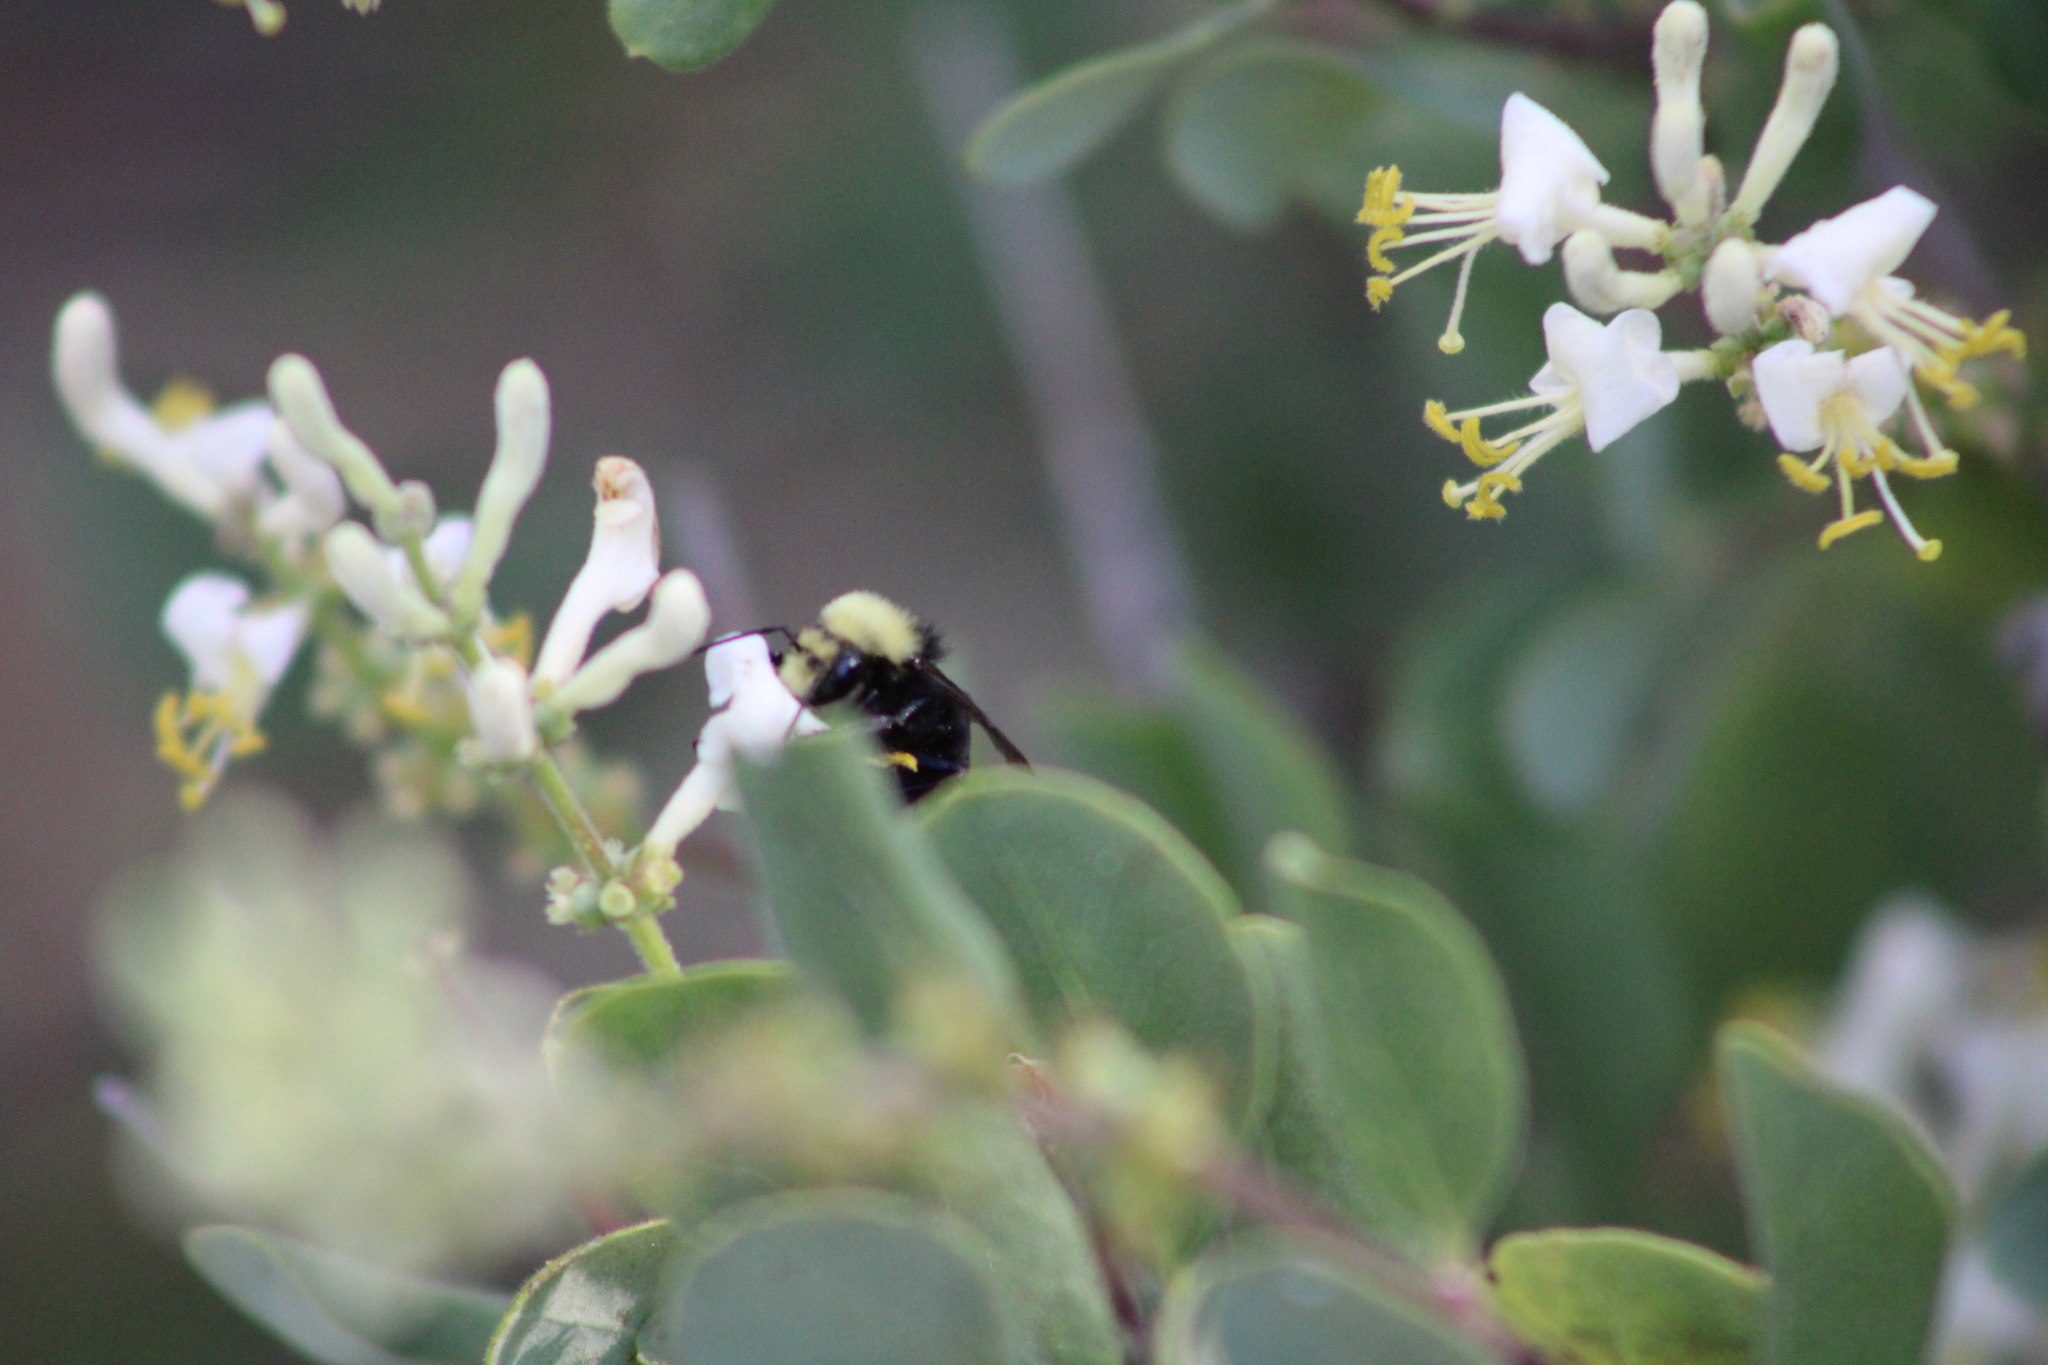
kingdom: Animalia
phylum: Arthropoda
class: Insecta
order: Hymenoptera
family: Apidae
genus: Bombus
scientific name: Bombus vosnesenskii
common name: Vosnesensky bumble bee
